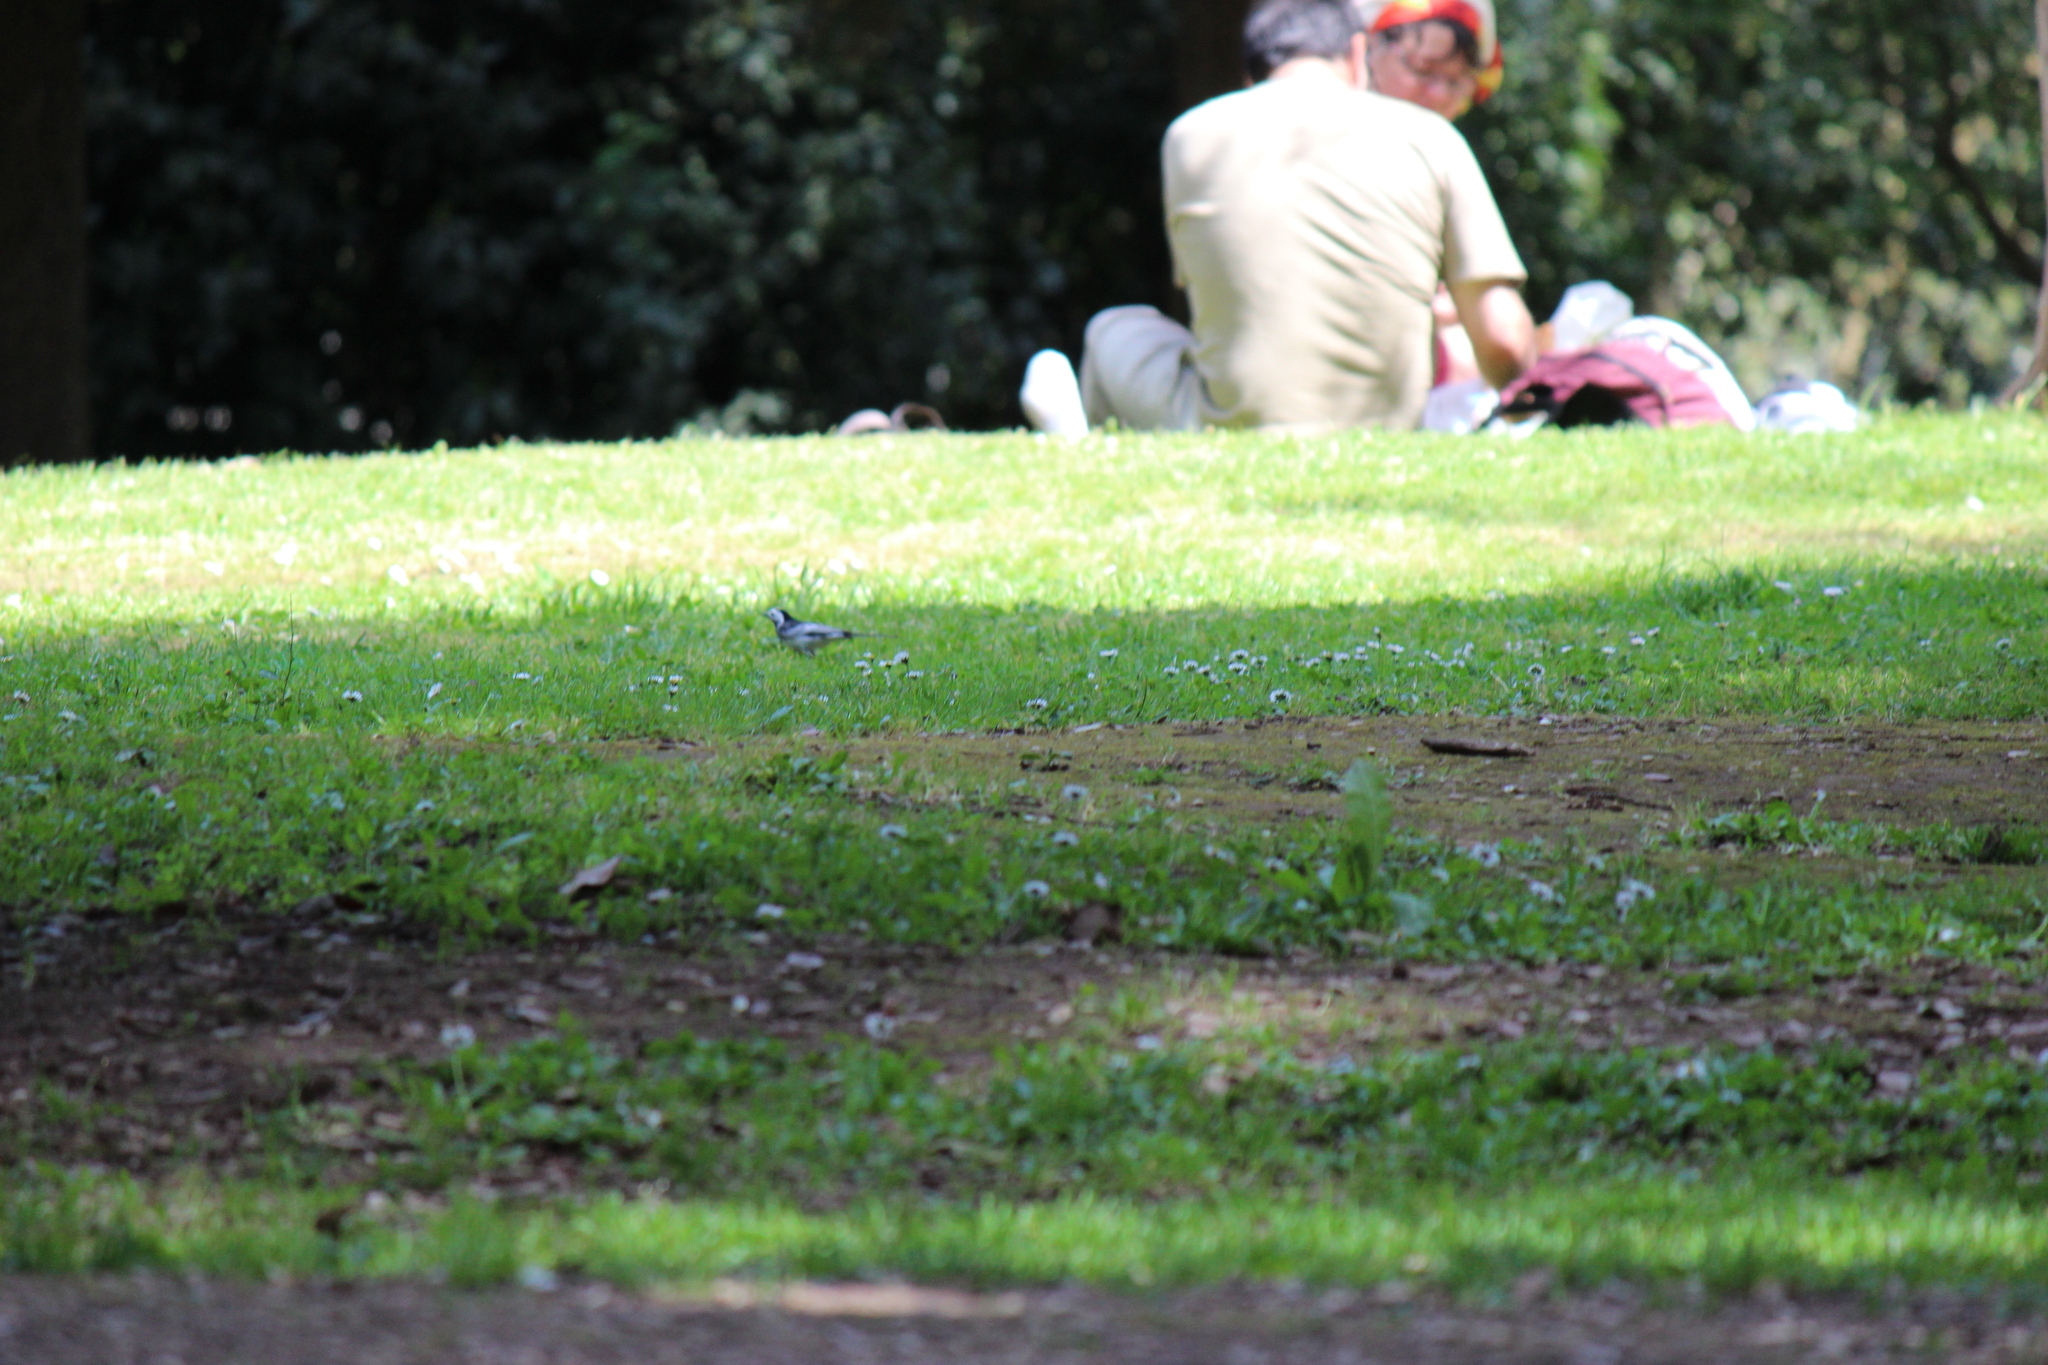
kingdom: Animalia
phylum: Chordata
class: Aves
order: Passeriformes
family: Motacillidae
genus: Motacilla
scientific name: Motacilla alba
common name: White wagtail
